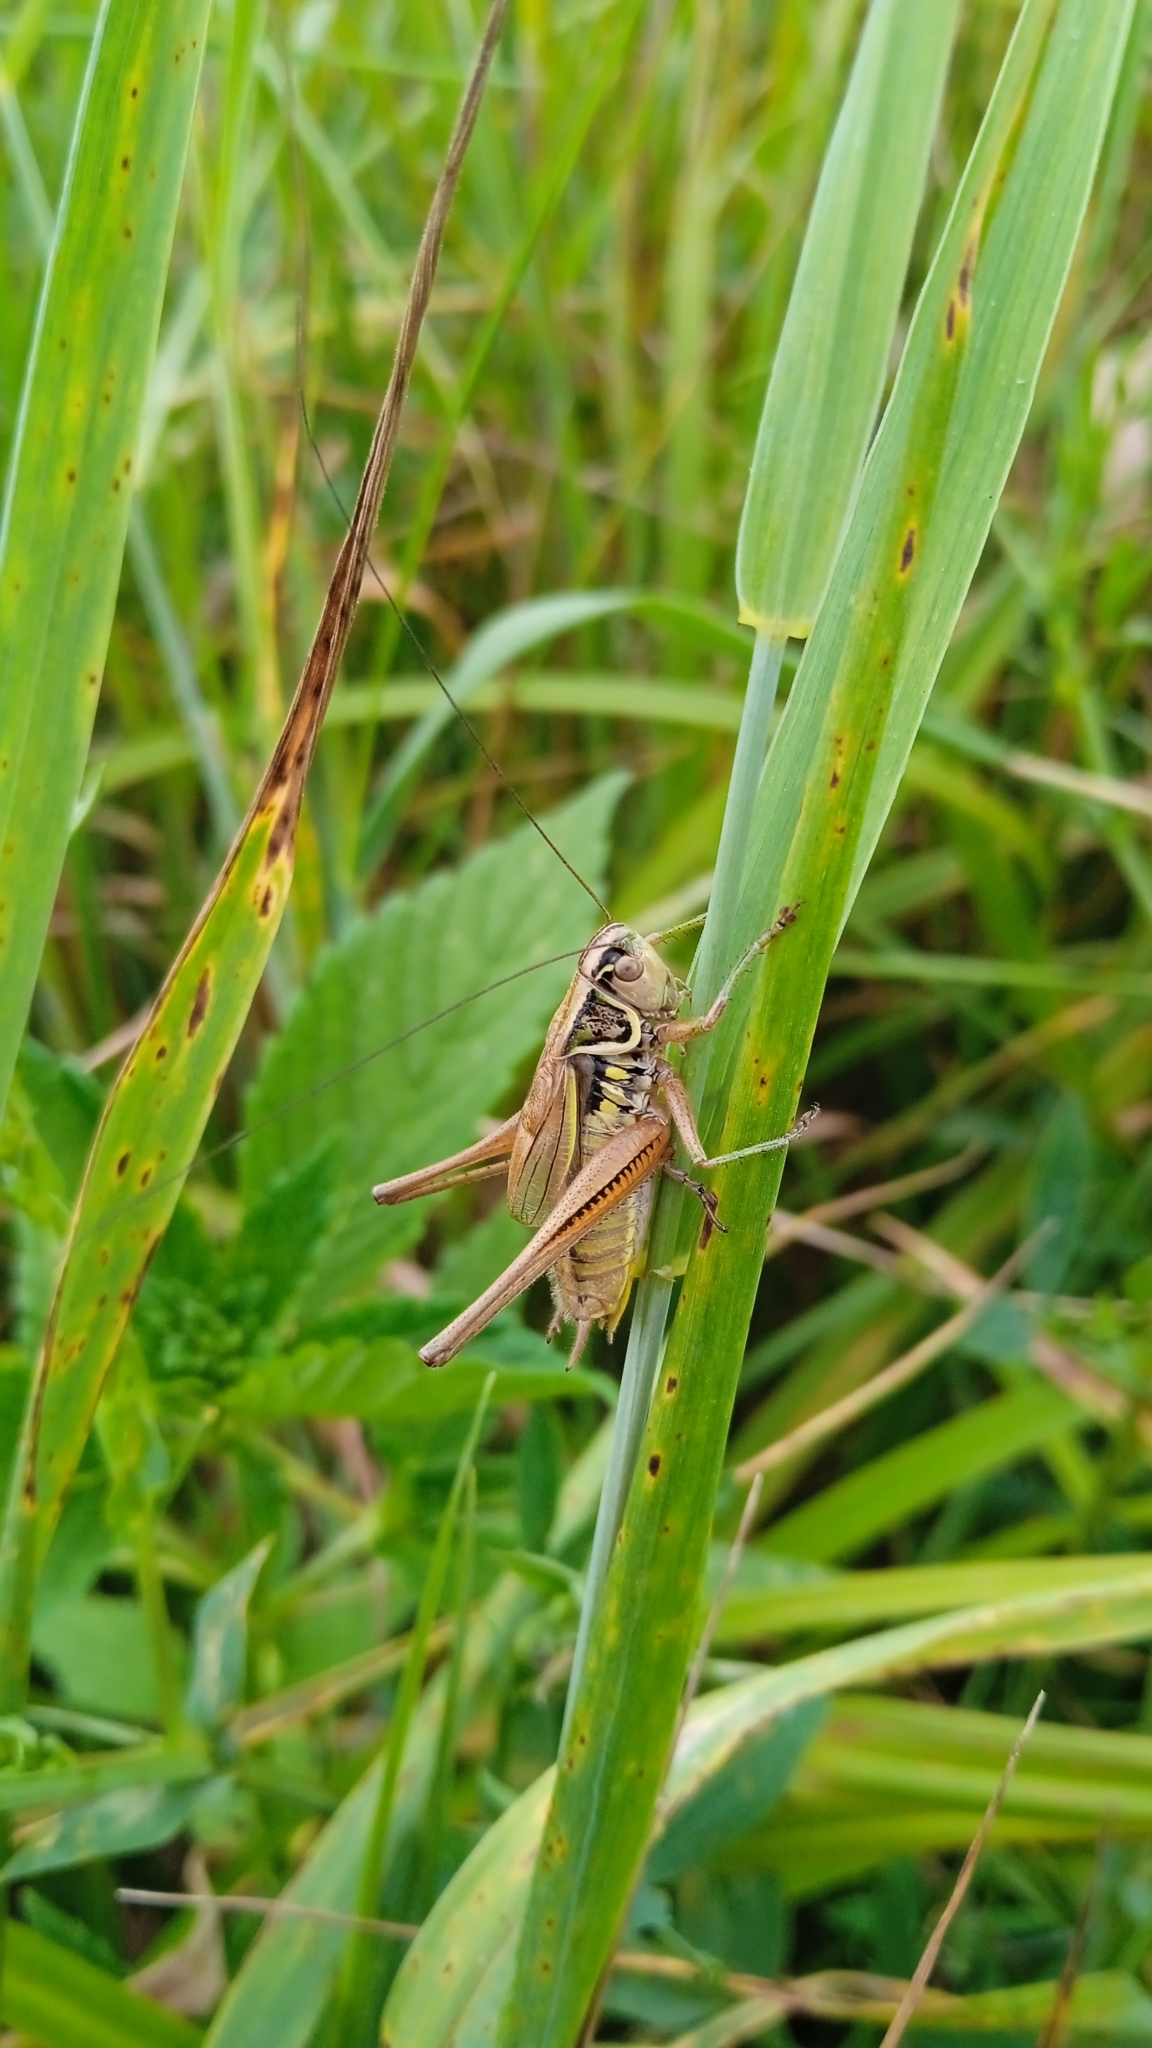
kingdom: Animalia
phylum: Arthropoda
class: Insecta
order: Orthoptera
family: Tettigoniidae
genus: Roeseliana
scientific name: Roeseliana roeselii
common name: Roesel's bush cricket
